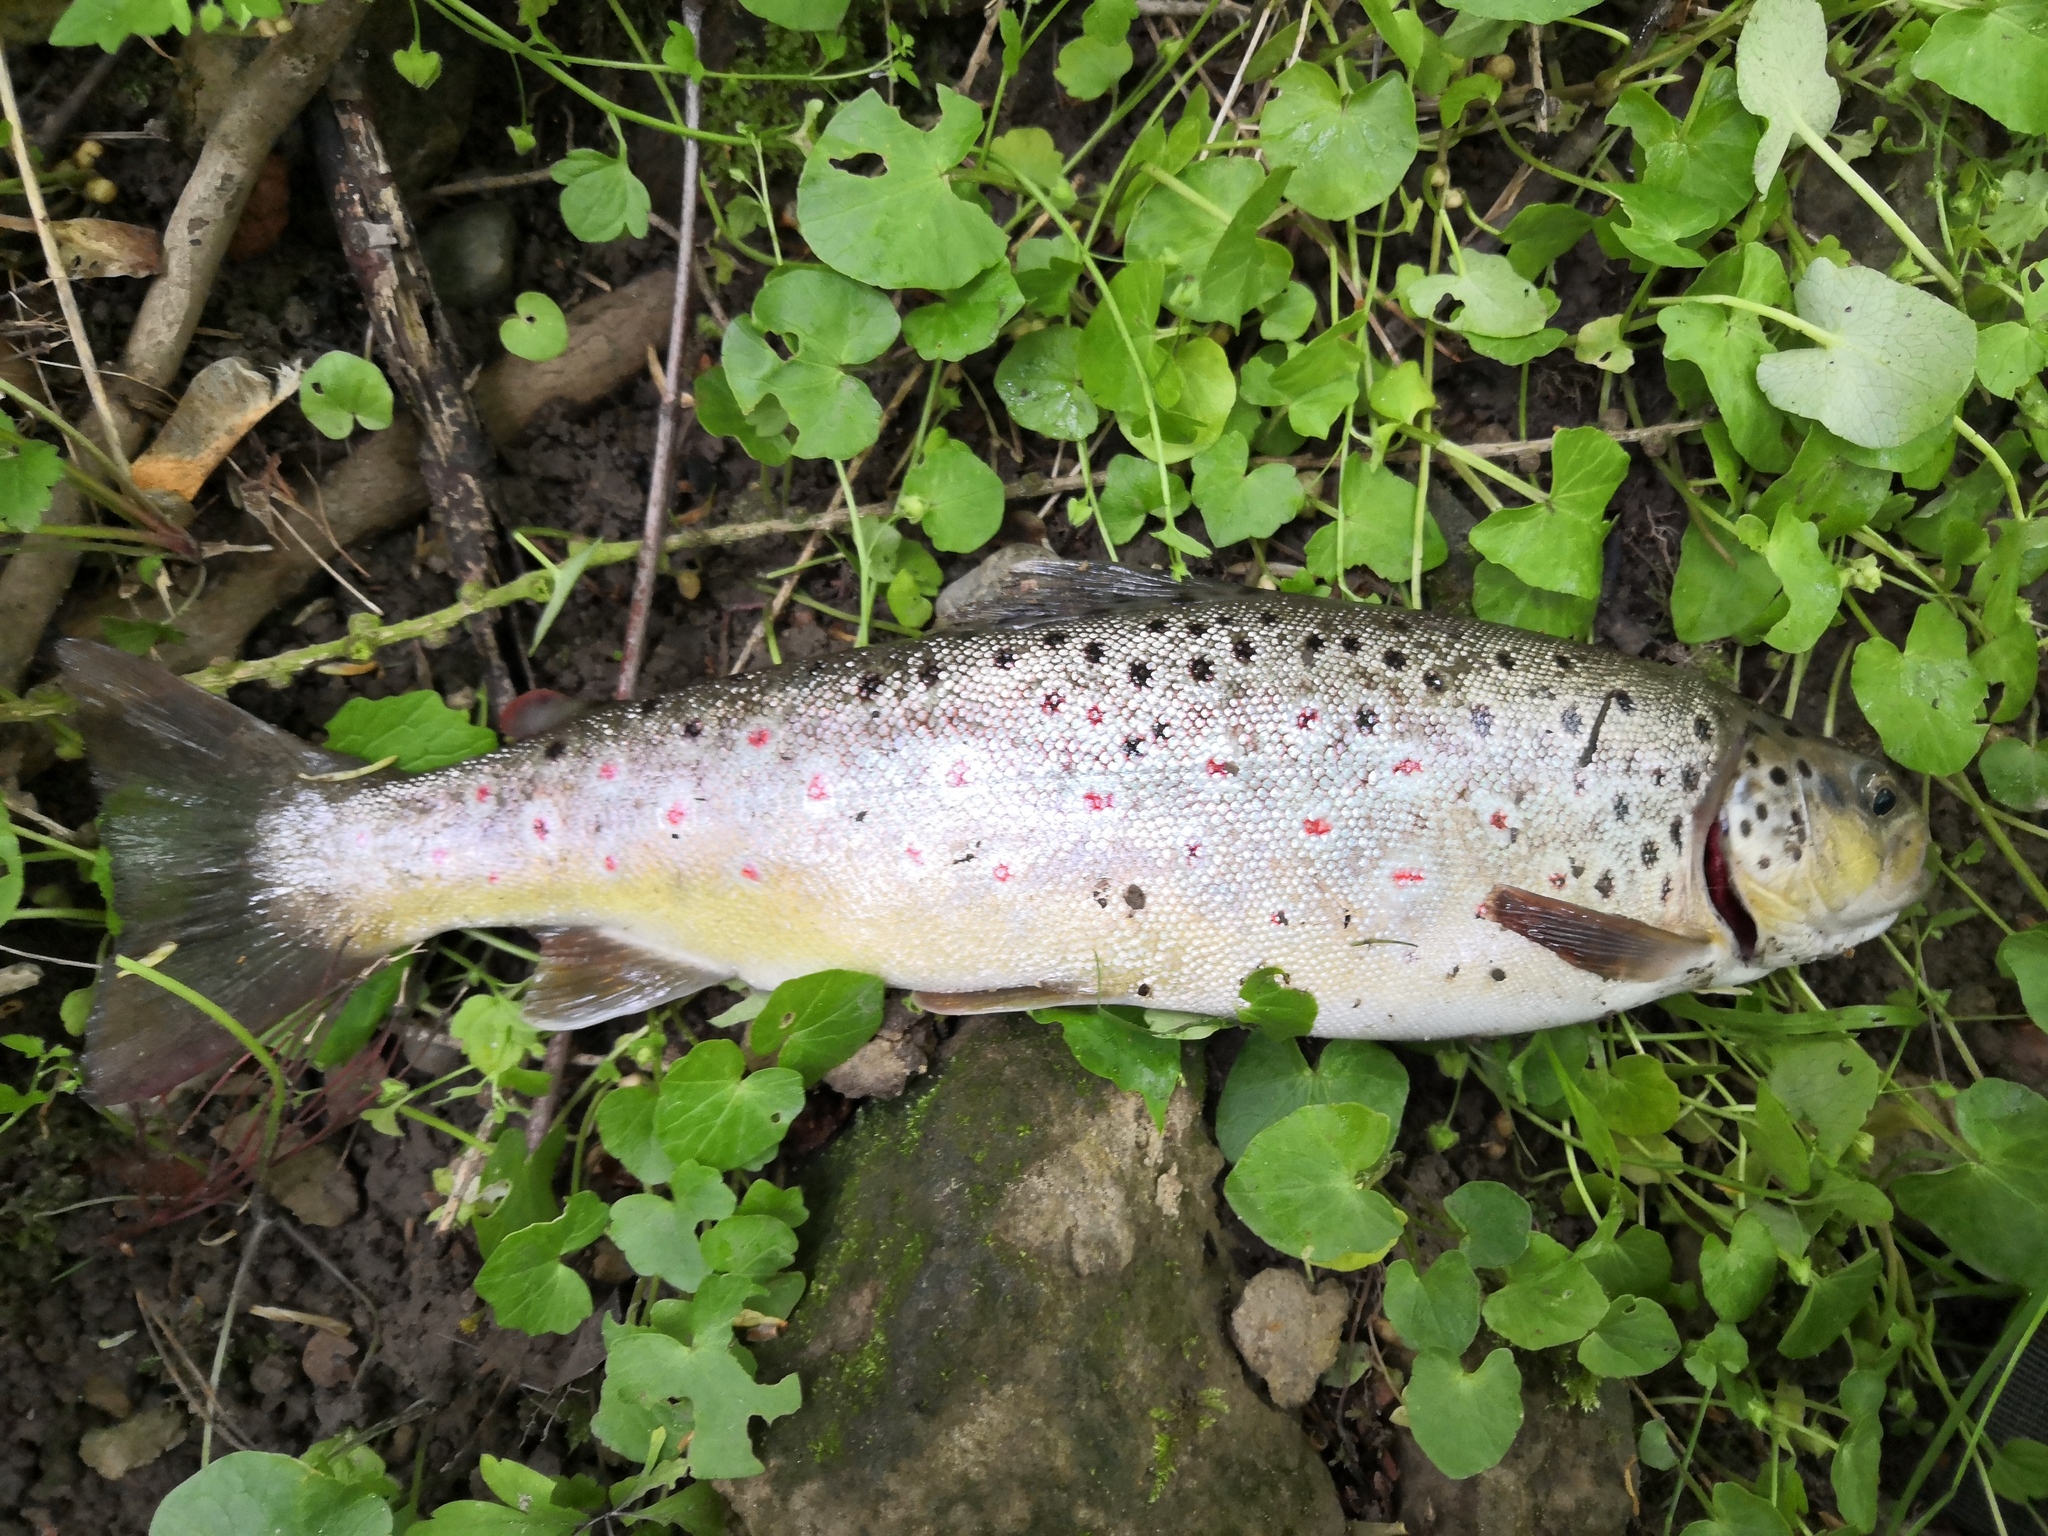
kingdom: Animalia
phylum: Chordata
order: Salmoniformes
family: Salmonidae
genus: Salmo
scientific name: Salmo trutta
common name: Brown trout
